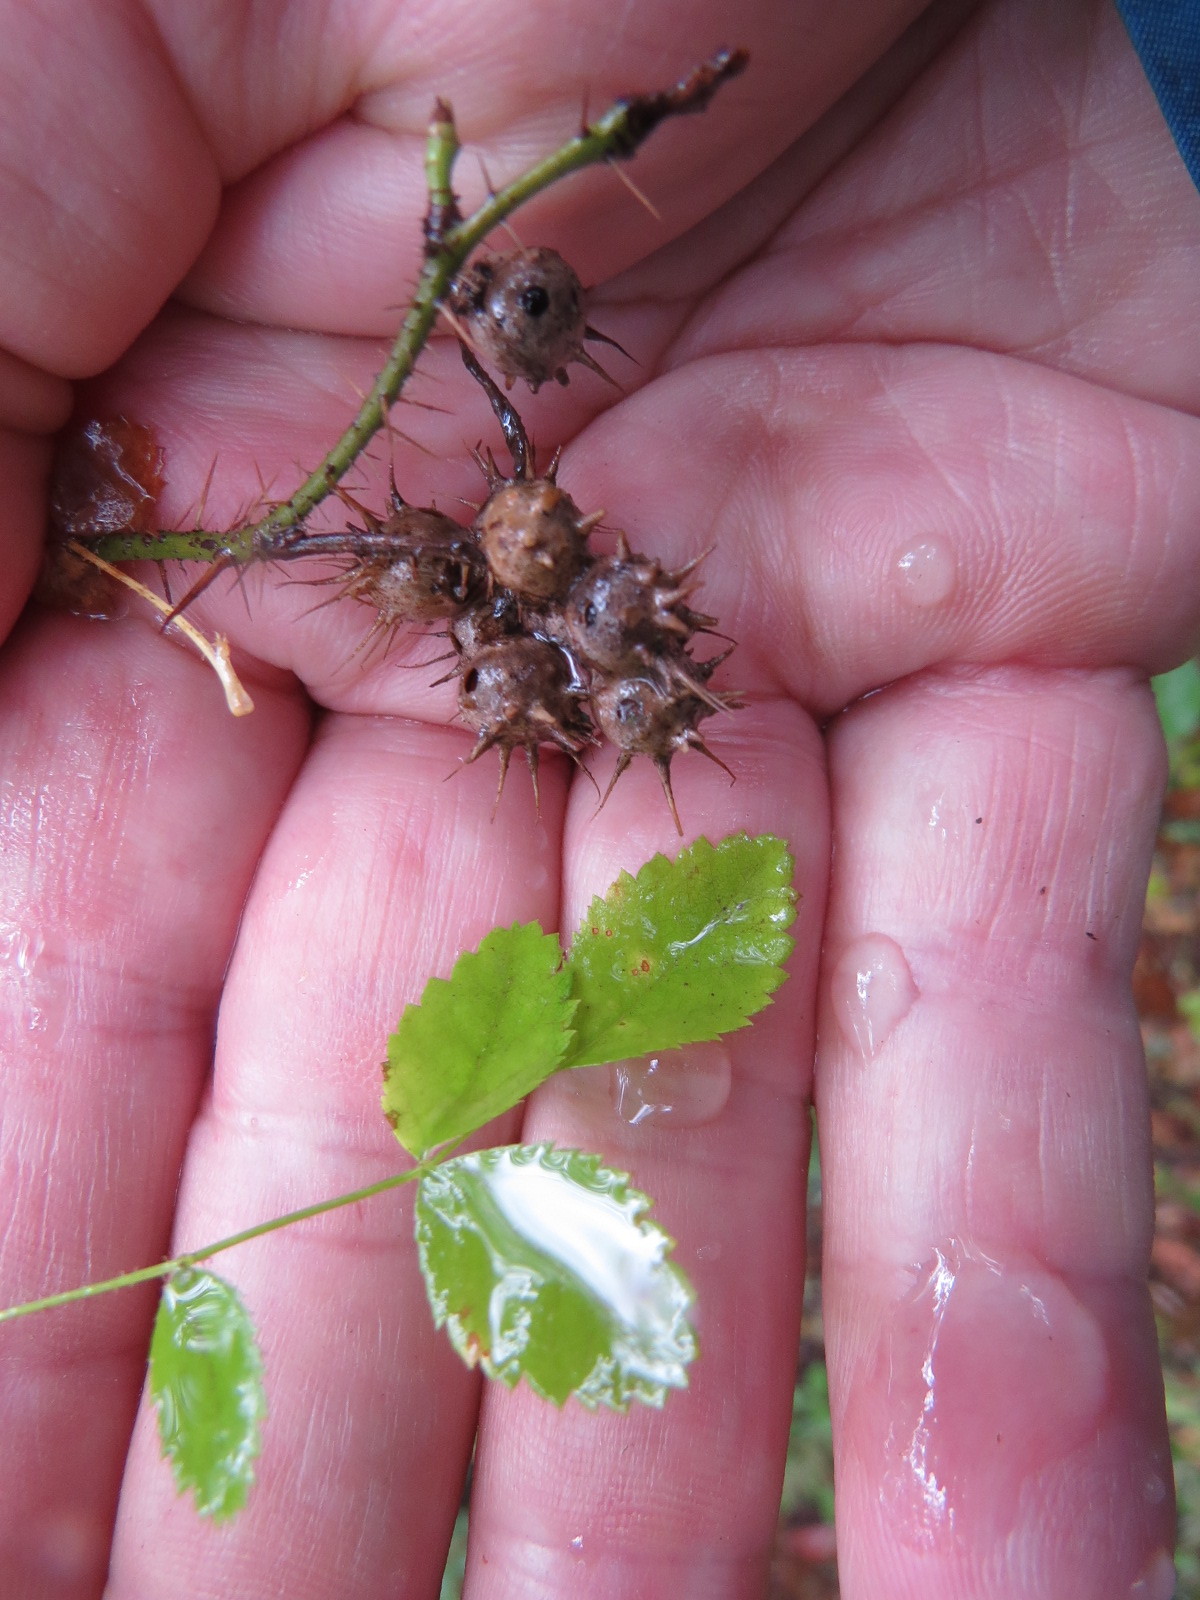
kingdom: Animalia
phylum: Arthropoda
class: Insecta
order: Hymenoptera
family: Cynipidae
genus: Diplolepis
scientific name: Diplolepis bicolor
